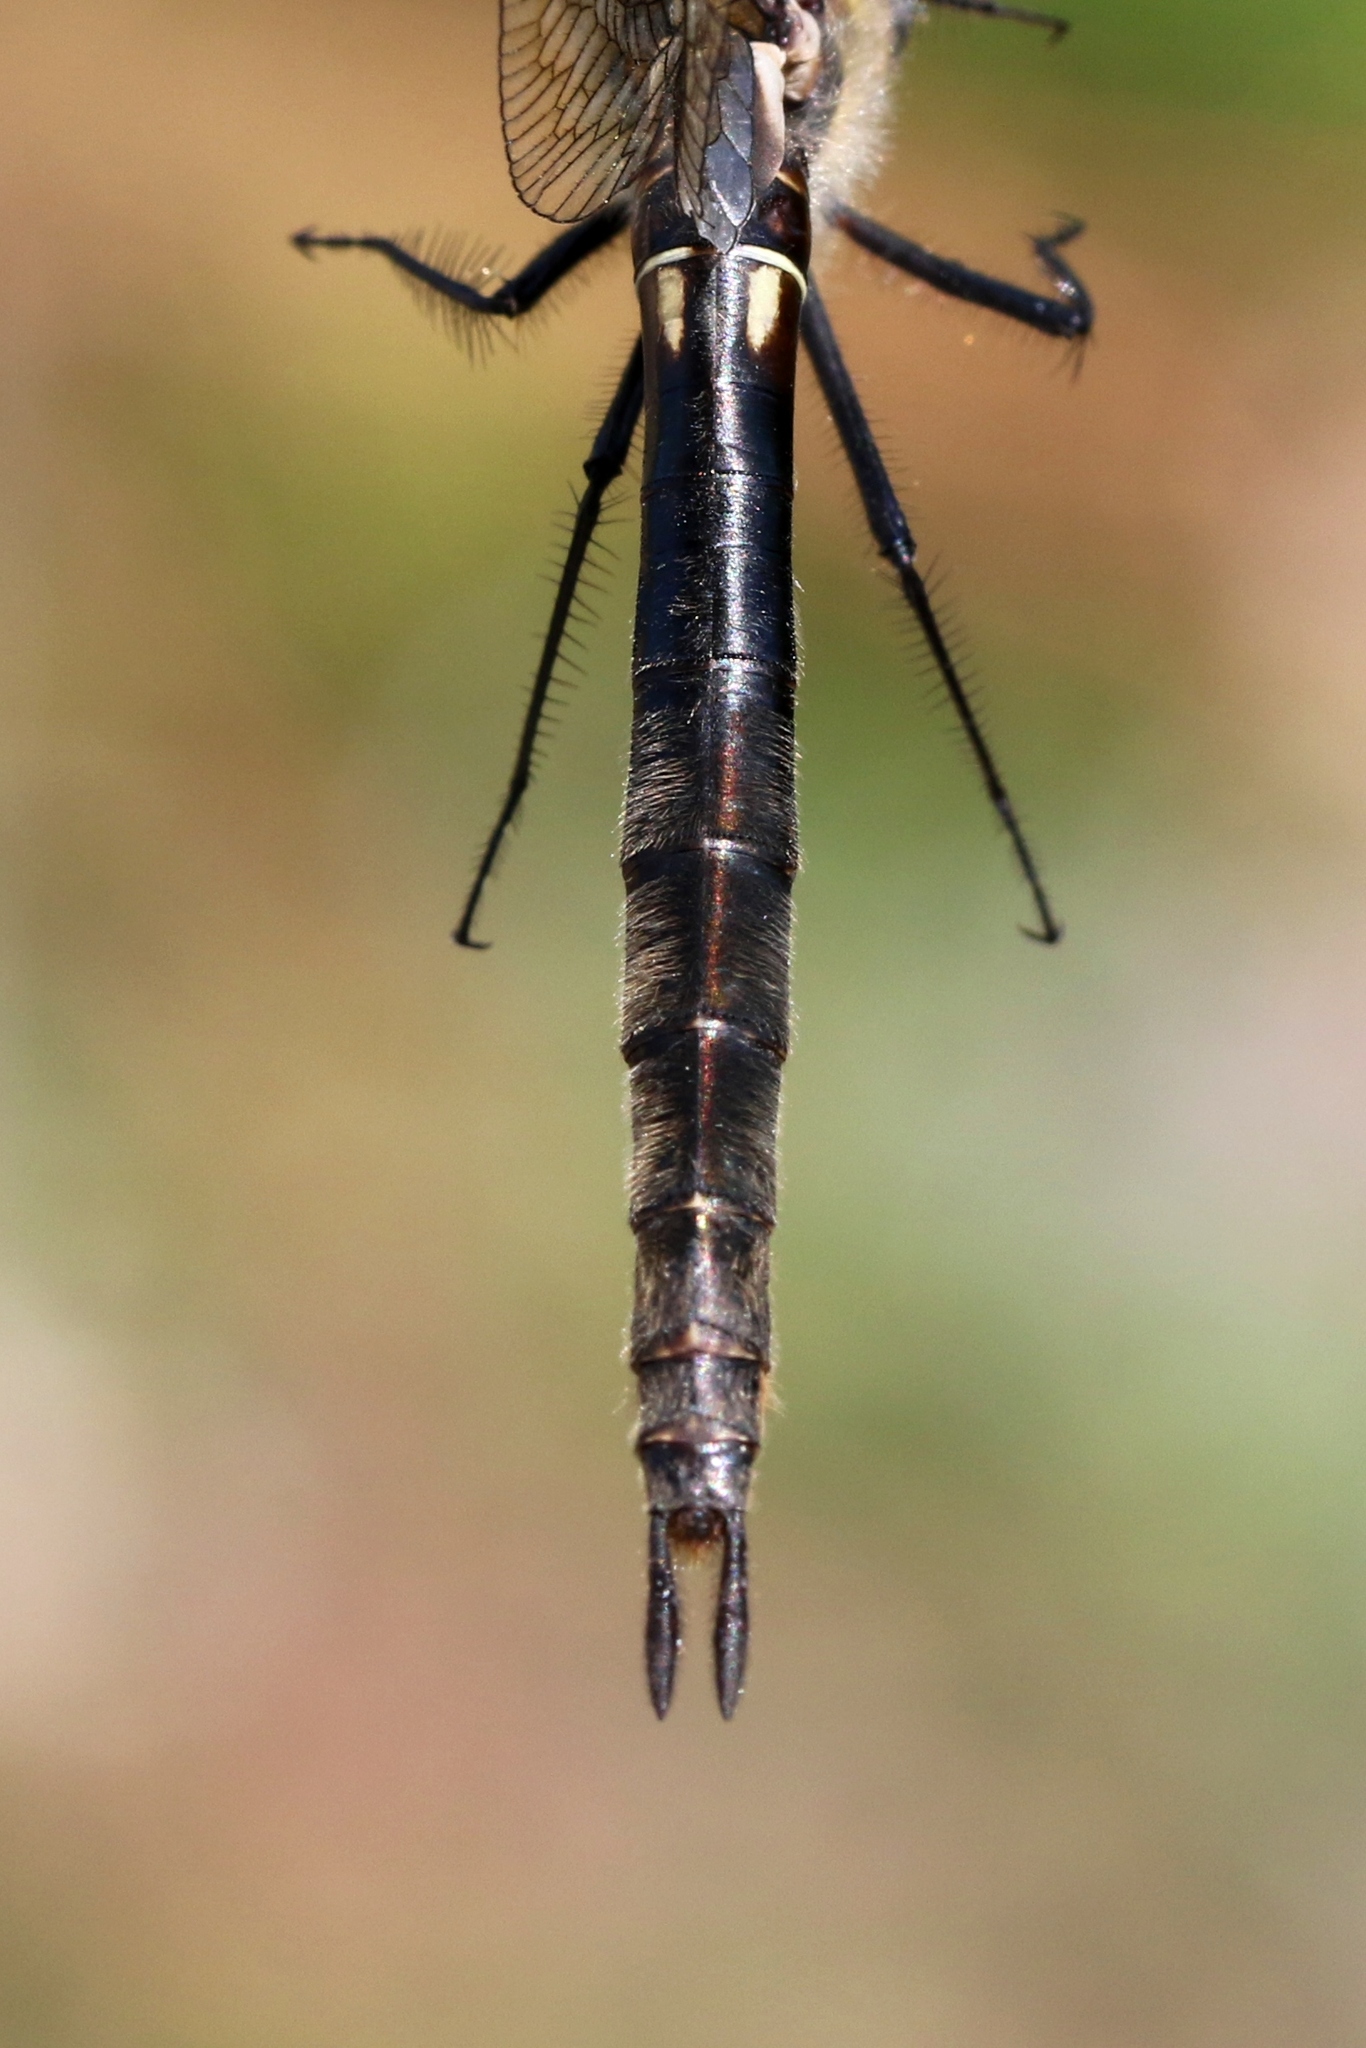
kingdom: Animalia
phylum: Arthropoda
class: Insecta
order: Odonata
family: Corduliidae
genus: Somatochlora
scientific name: Somatochlora minor
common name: Ocellated emerald
